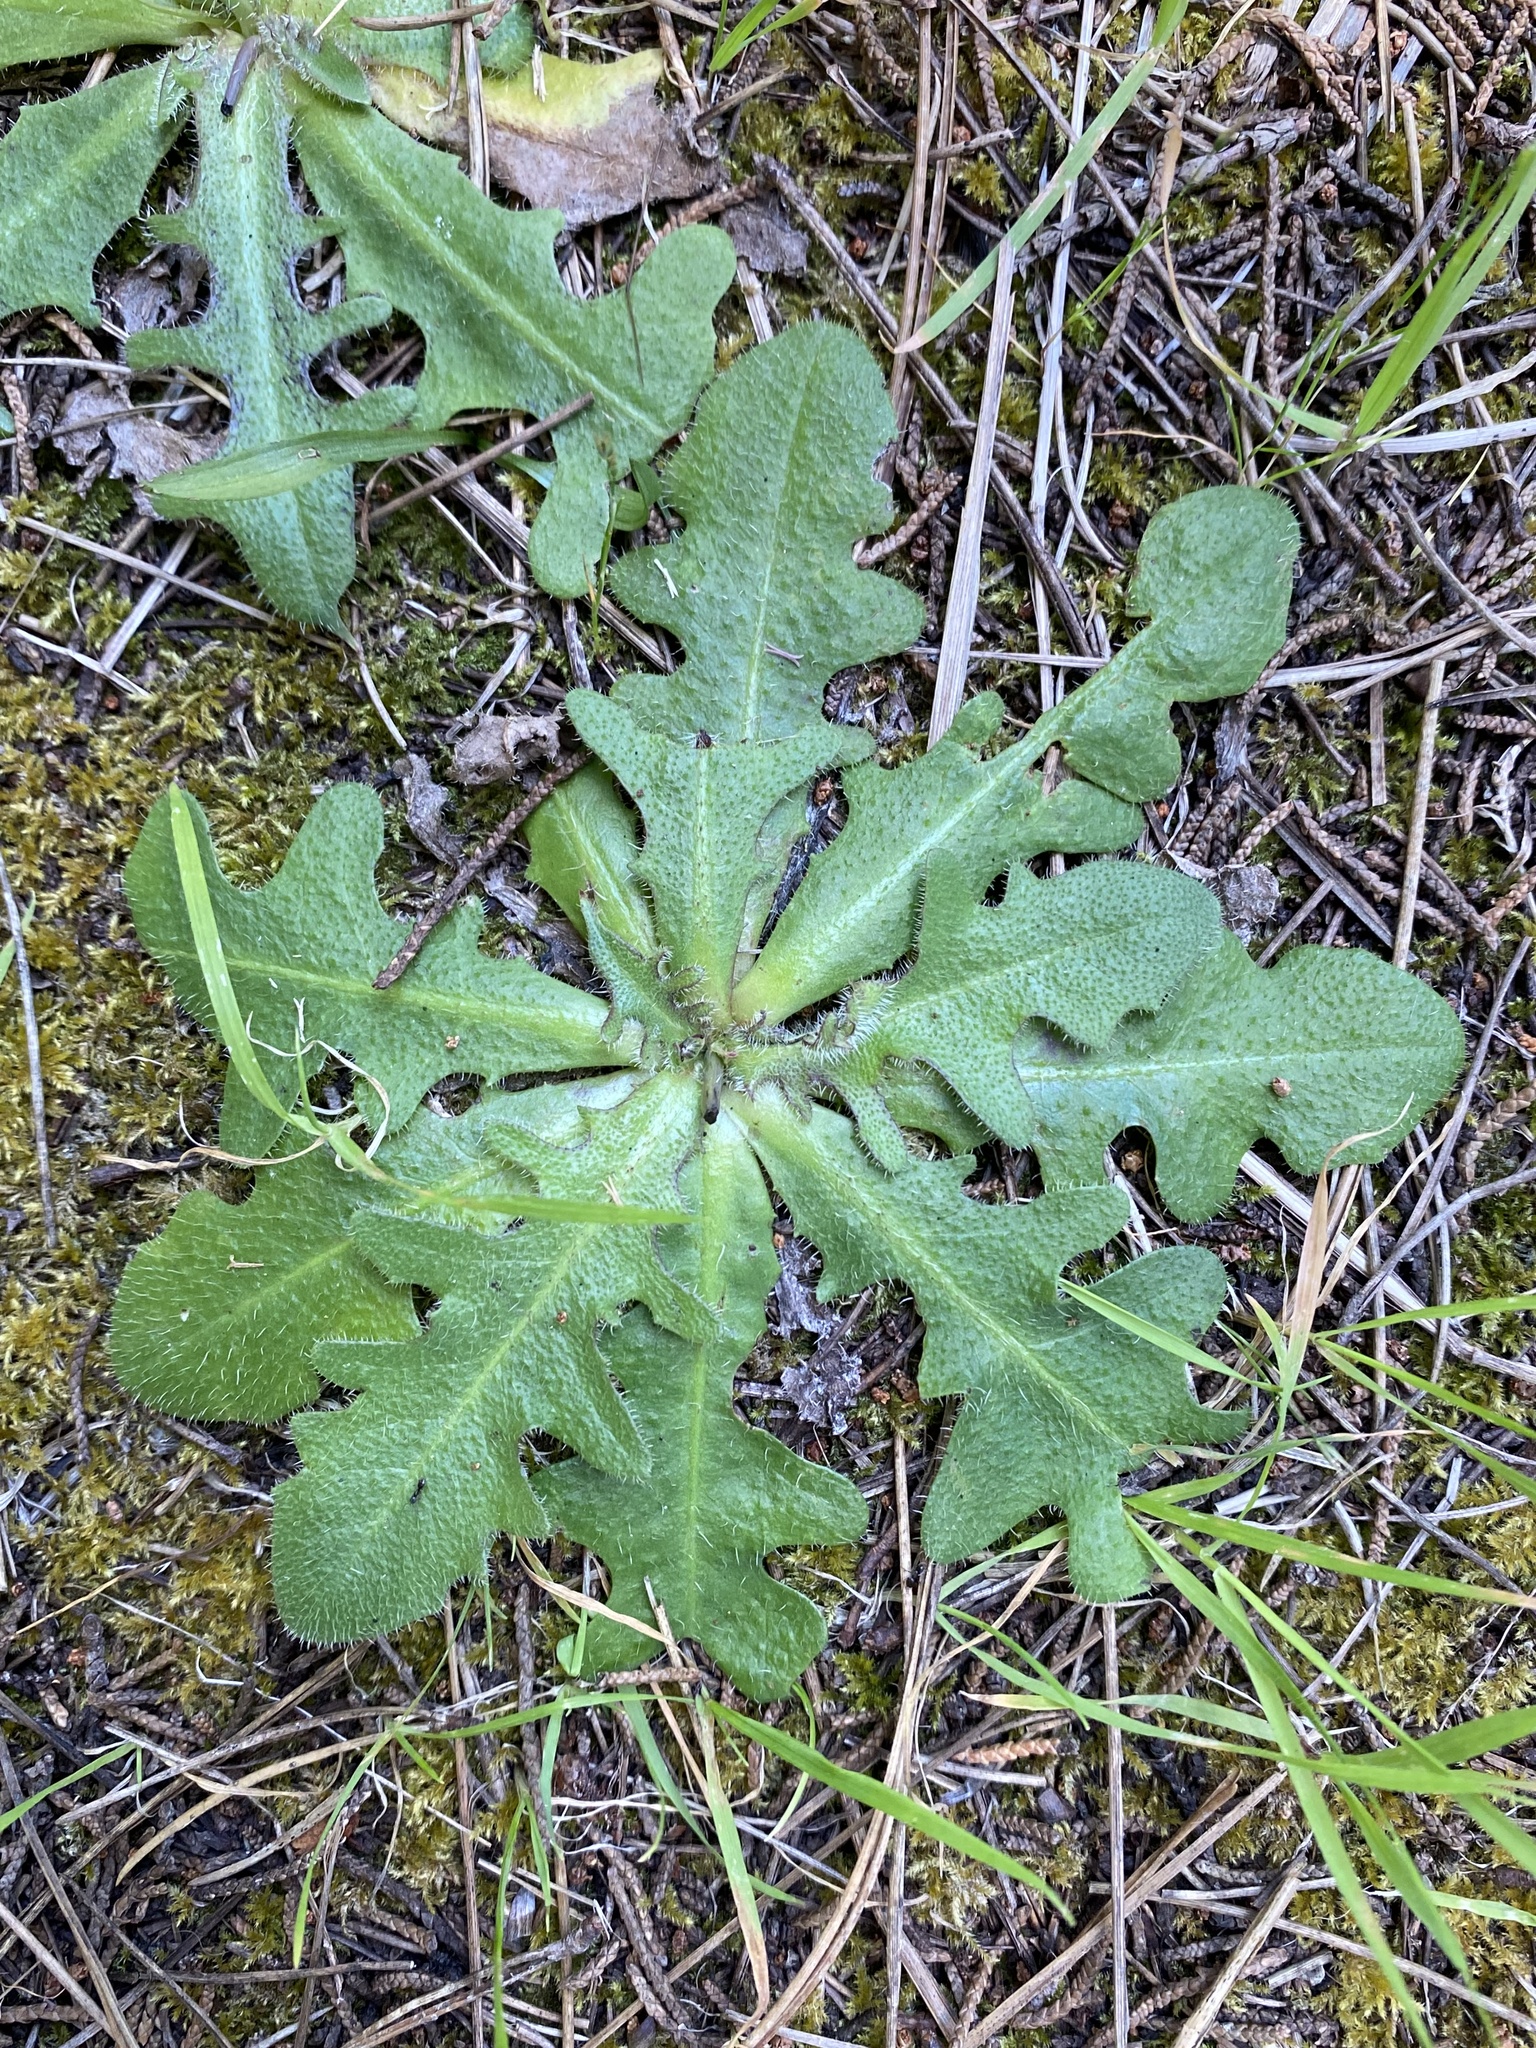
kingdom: Plantae
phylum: Tracheophyta
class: Magnoliopsida
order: Asterales
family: Asteraceae
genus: Hypochaeris
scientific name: Hypochaeris radicata
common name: Flatweed
